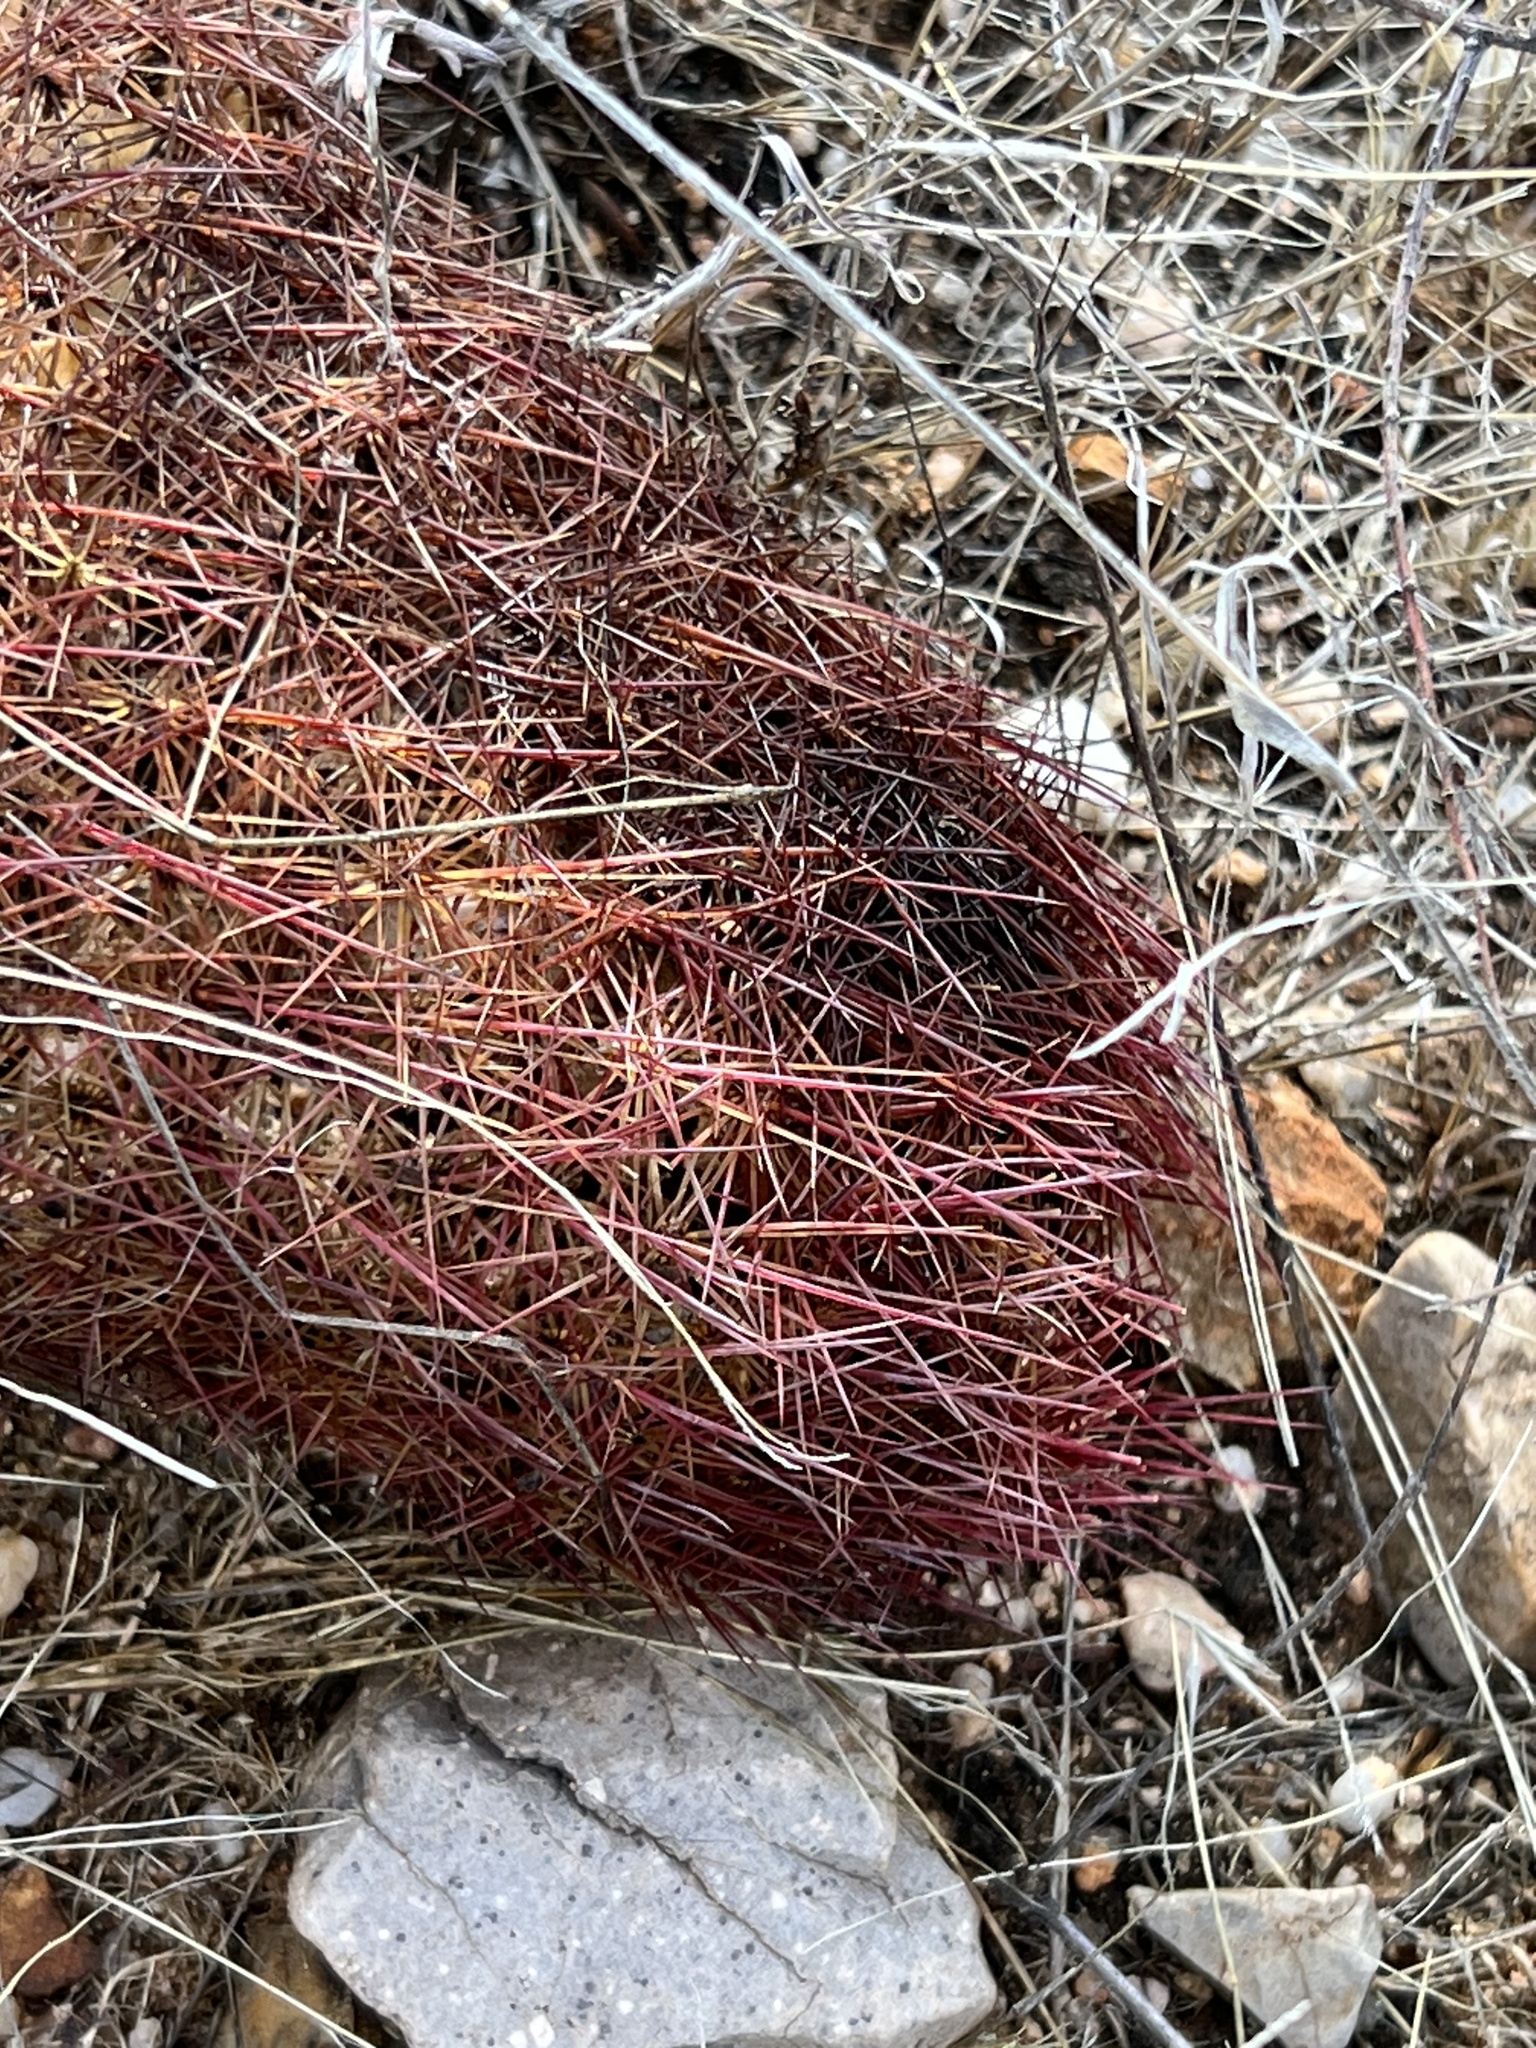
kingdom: Plantae
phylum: Tracheophyta
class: Magnoliopsida
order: Caryophyllales
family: Cactaceae
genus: Sclerocactus
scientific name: Sclerocactus johnsonii
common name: Eight-spine fishhook cactus
